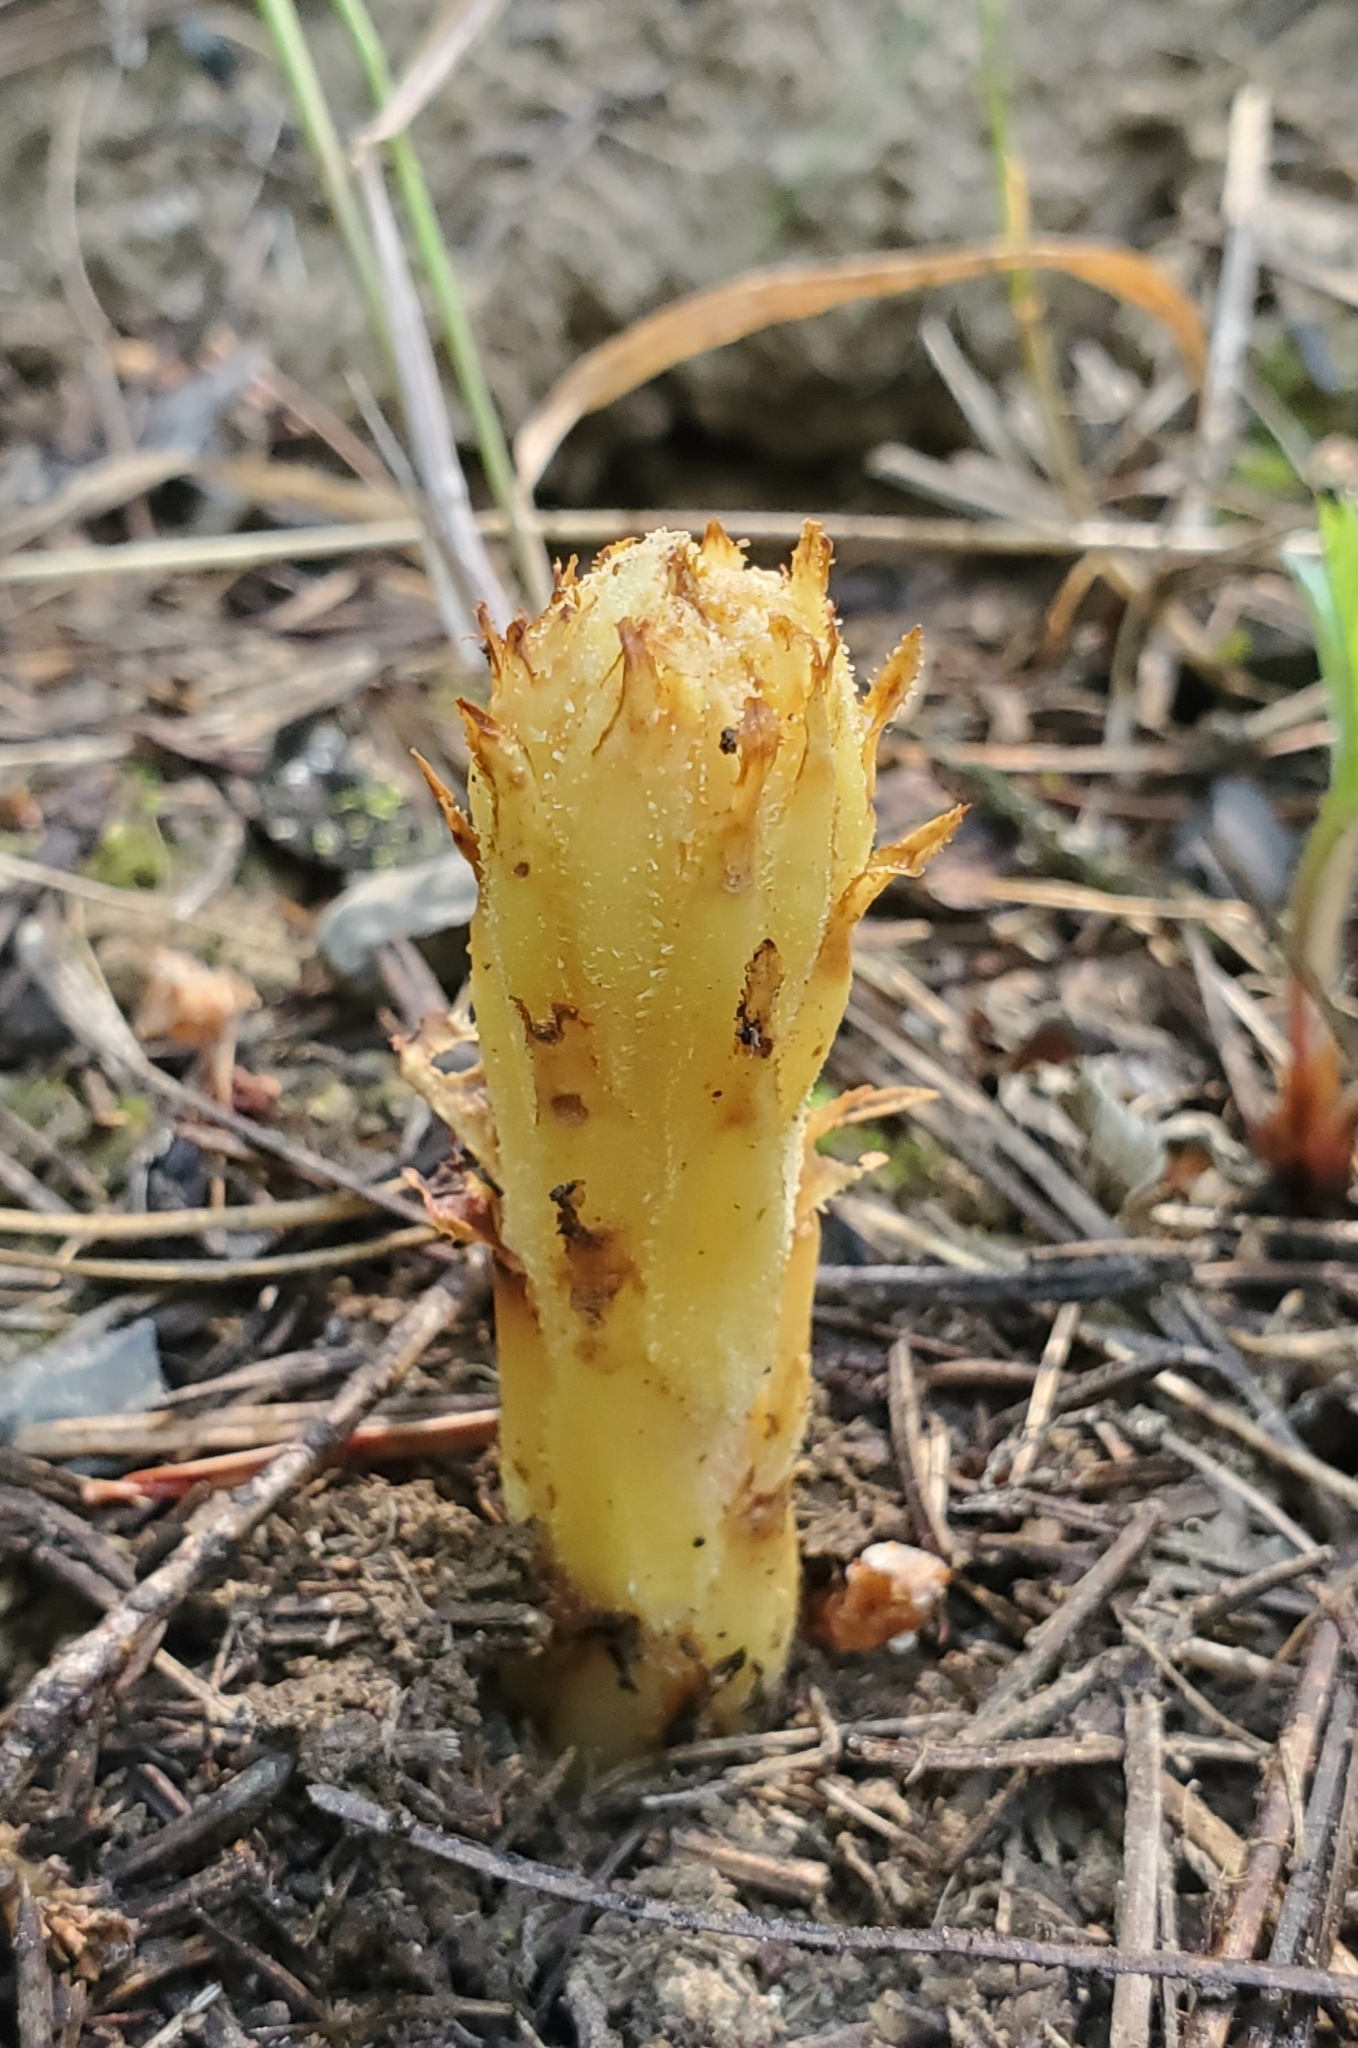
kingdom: Plantae
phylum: Tracheophyta
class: Magnoliopsida
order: Ericales
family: Ericaceae
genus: Pterospora
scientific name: Pterospora andromedea
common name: Giant bird's-nest
